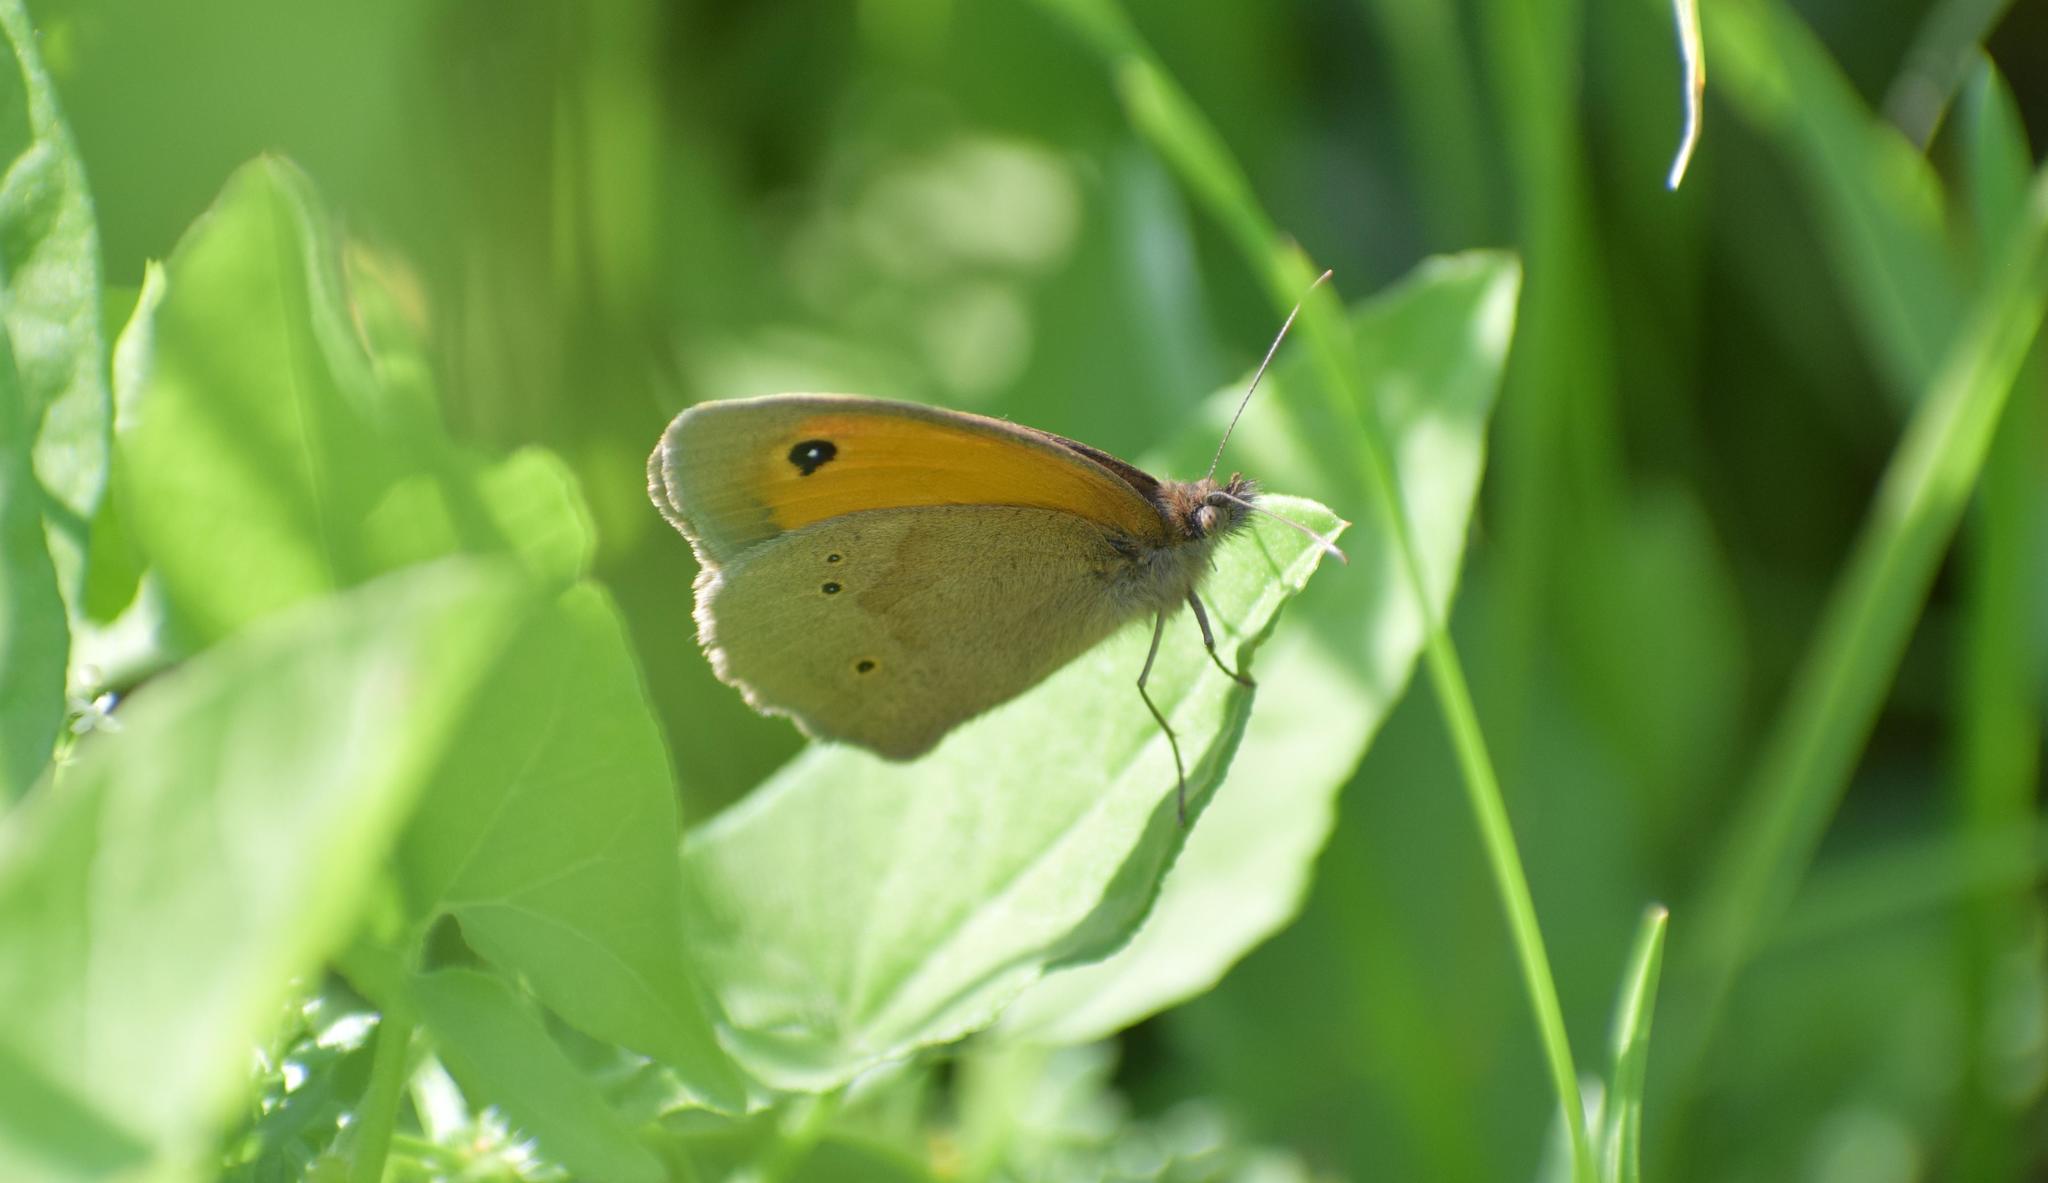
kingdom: Animalia
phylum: Arthropoda
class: Insecta
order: Lepidoptera
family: Nymphalidae
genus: Maniola
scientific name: Maniola jurtina
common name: Meadow brown
